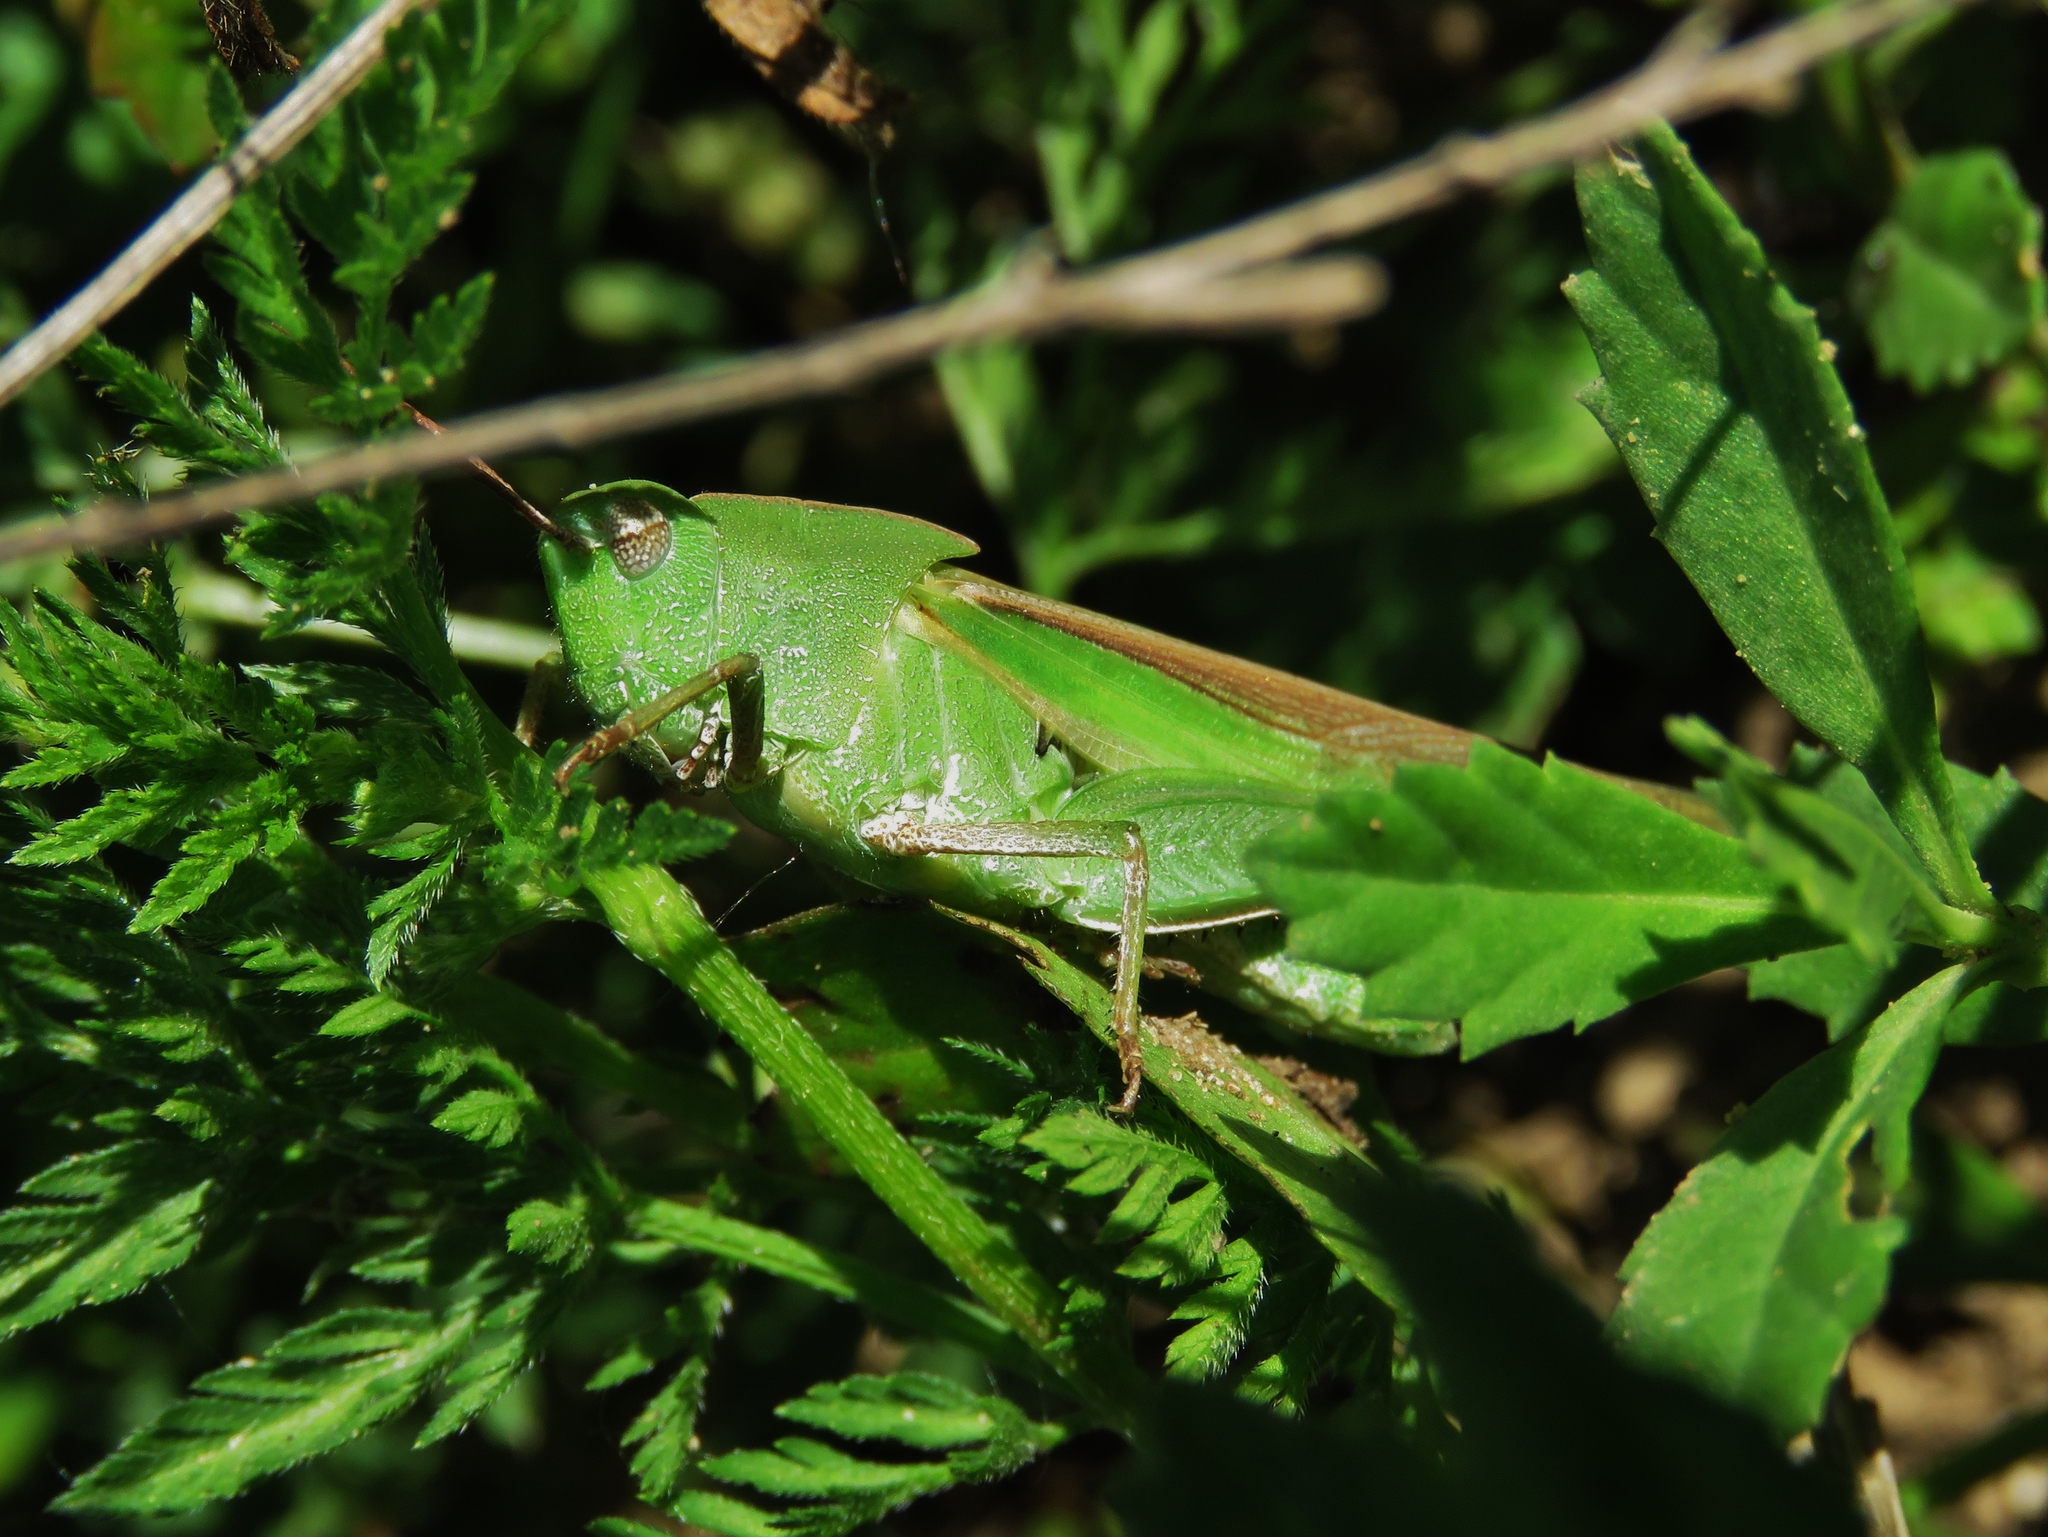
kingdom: Animalia
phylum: Arthropoda
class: Insecta
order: Orthoptera
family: Acrididae
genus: Chortophaga
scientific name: Chortophaga viridifasciata
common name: Green-striped grasshopper
